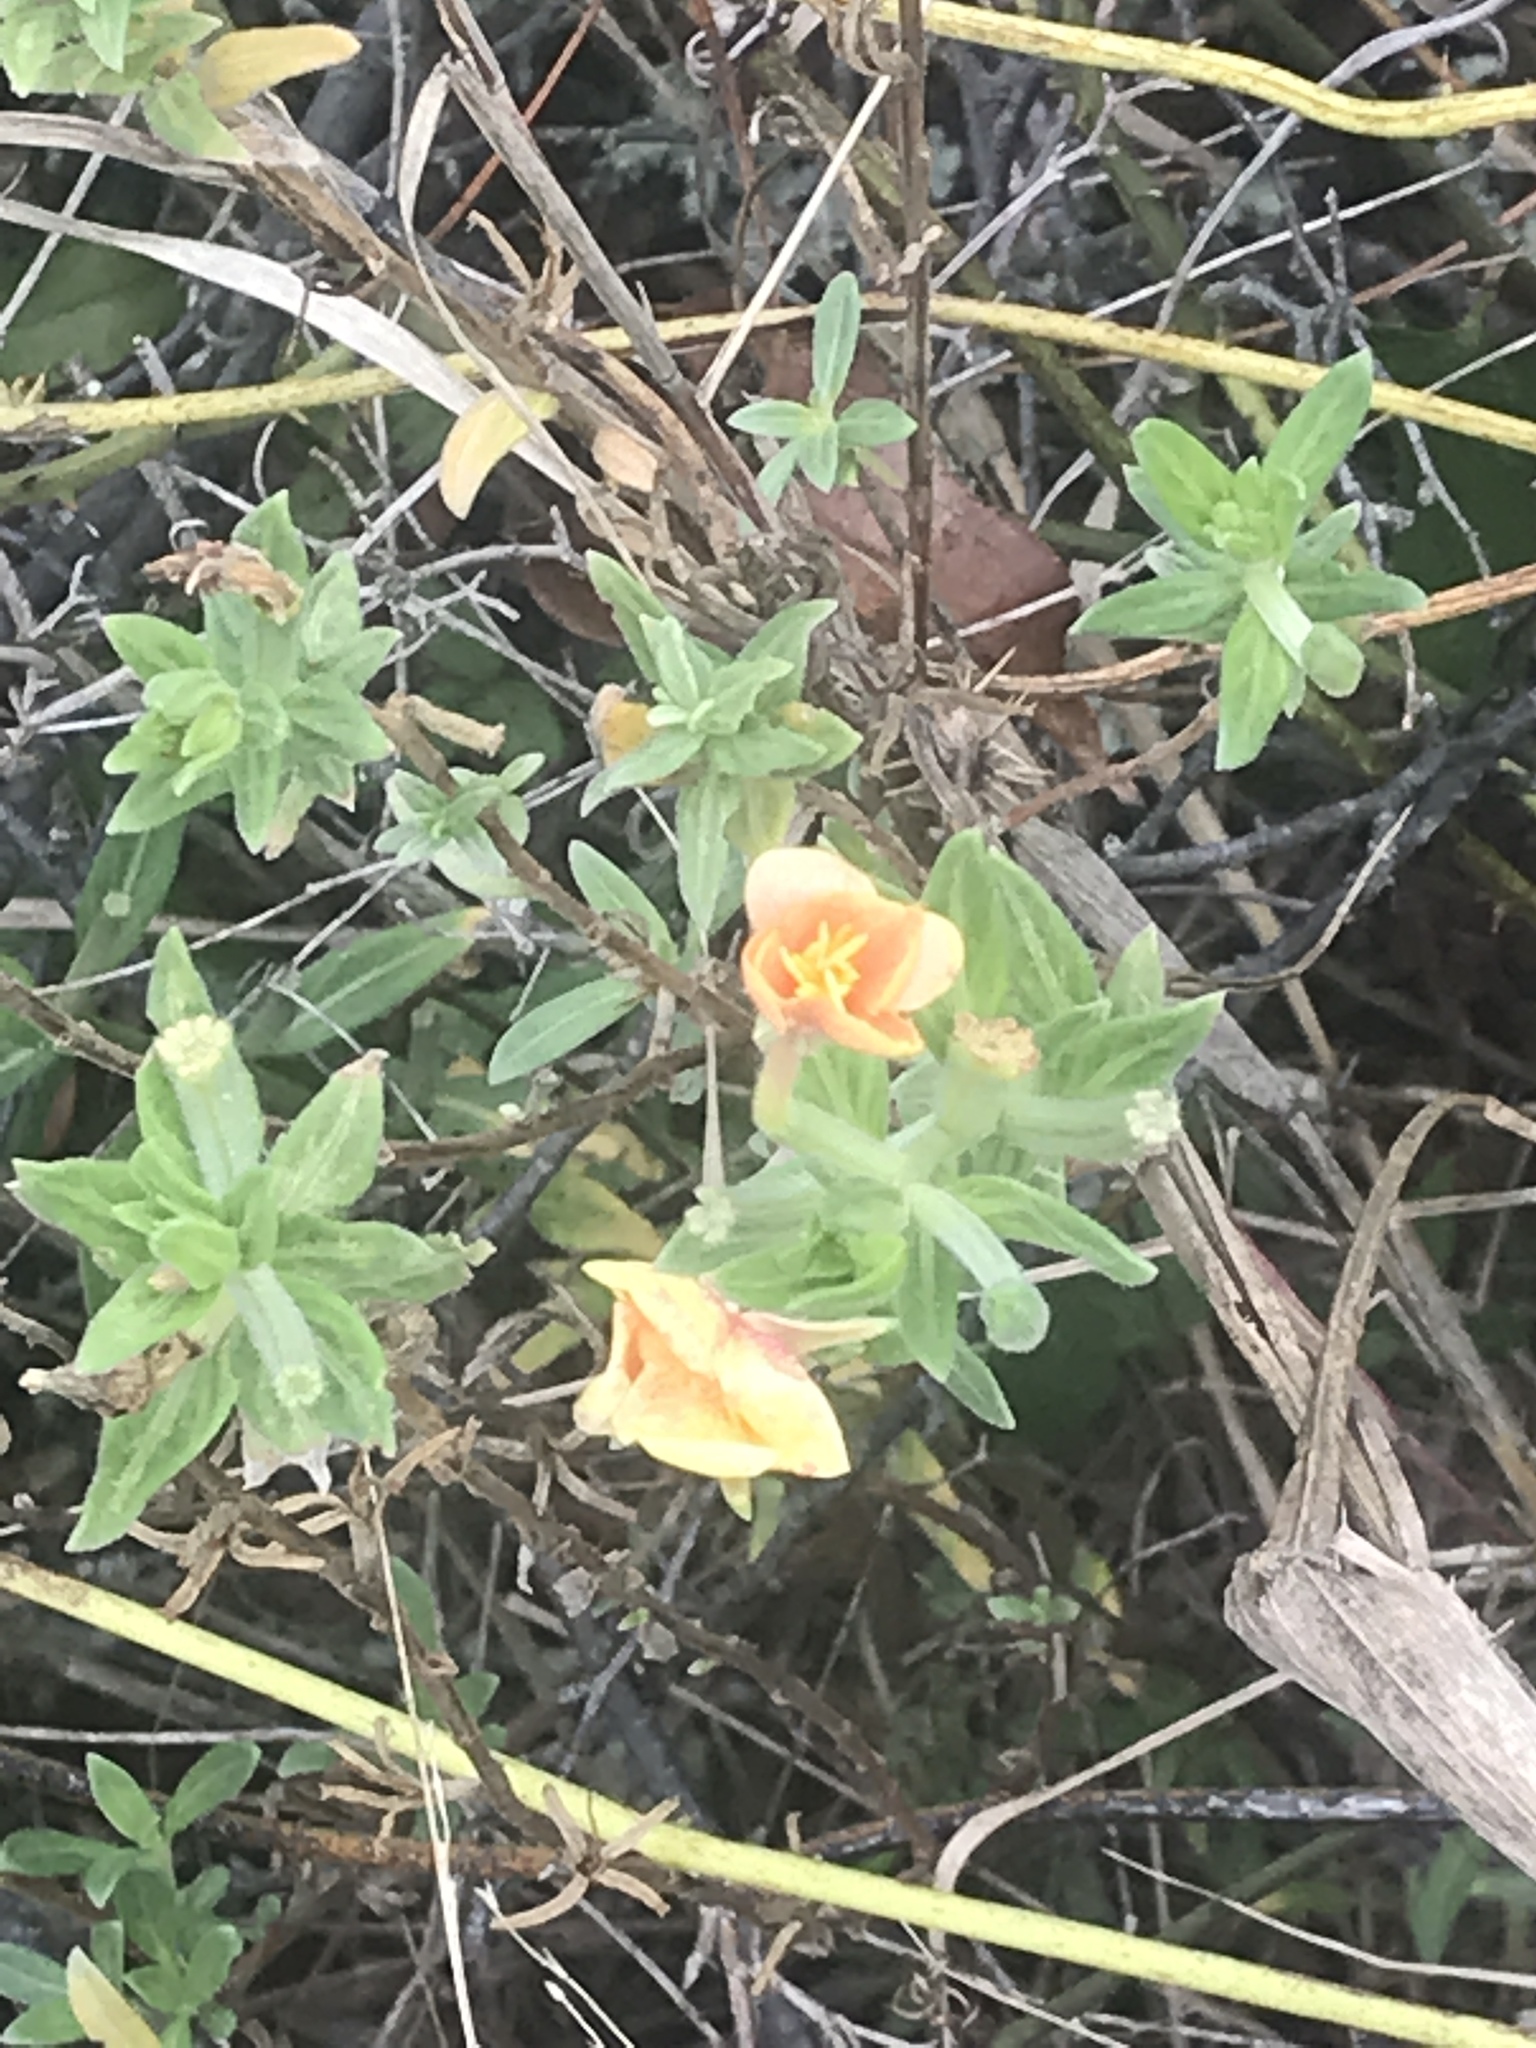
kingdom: Plantae
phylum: Tracheophyta
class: Magnoliopsida
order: Myrtales
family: Onagraceae
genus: Oenothera
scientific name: Oenothera humifusa
